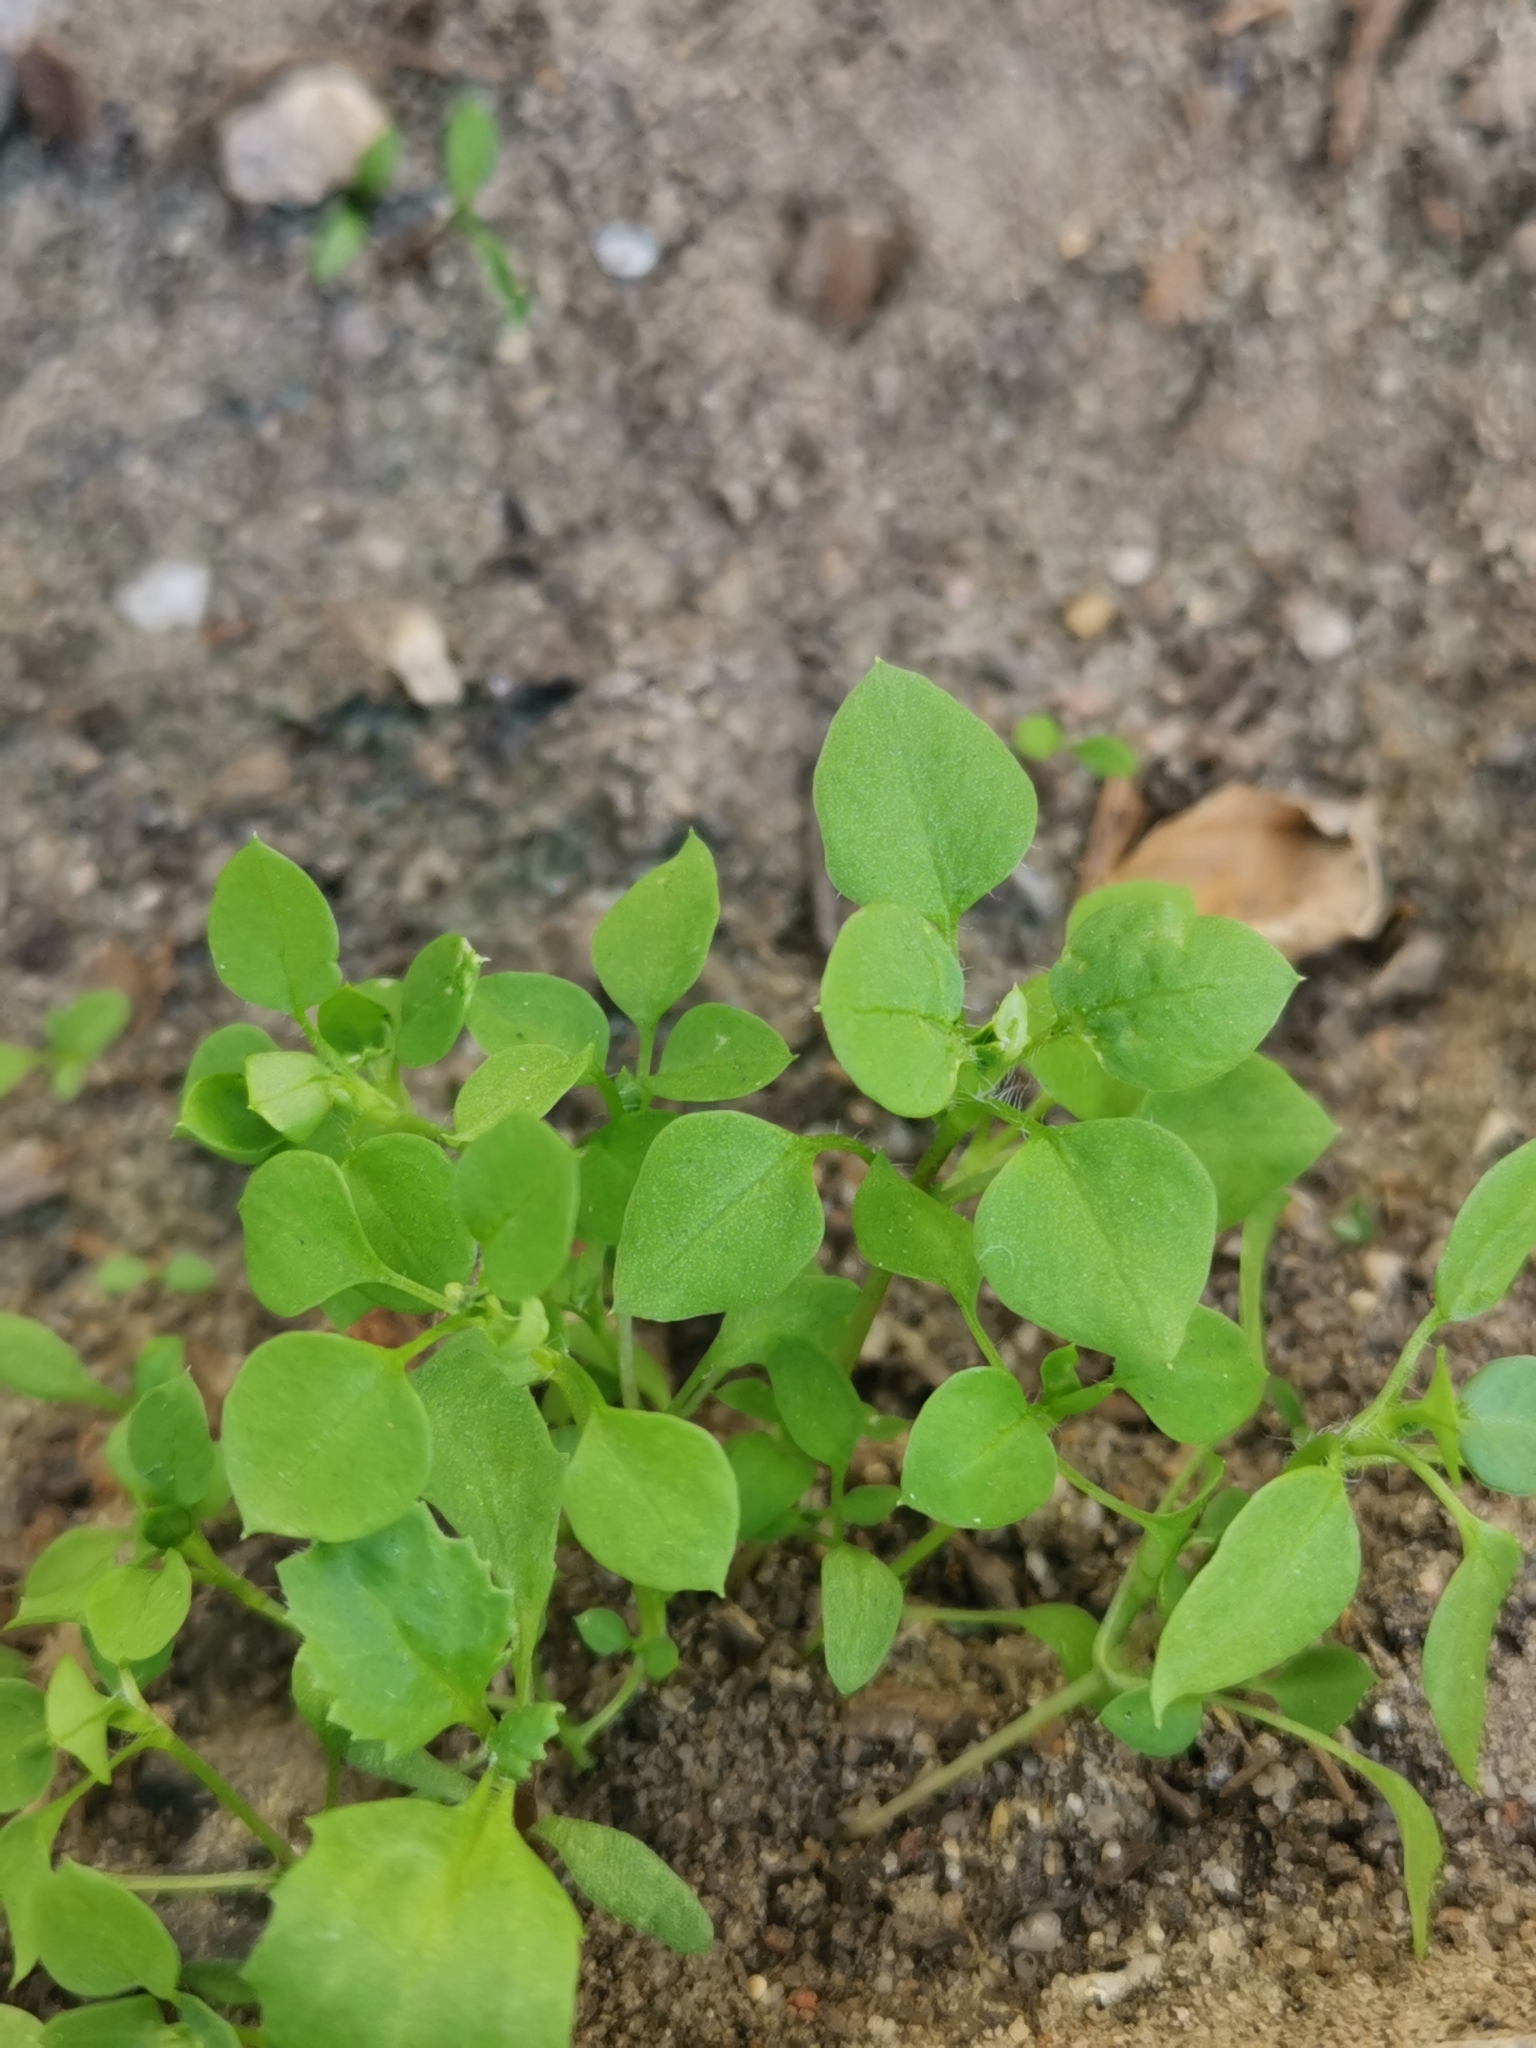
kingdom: Plantae
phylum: Tracheophyta
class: Magnoliopsida
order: Caryophyllales
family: Caryophyllaceae
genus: Stellaria
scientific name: Stellaria media
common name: Common chickweed
